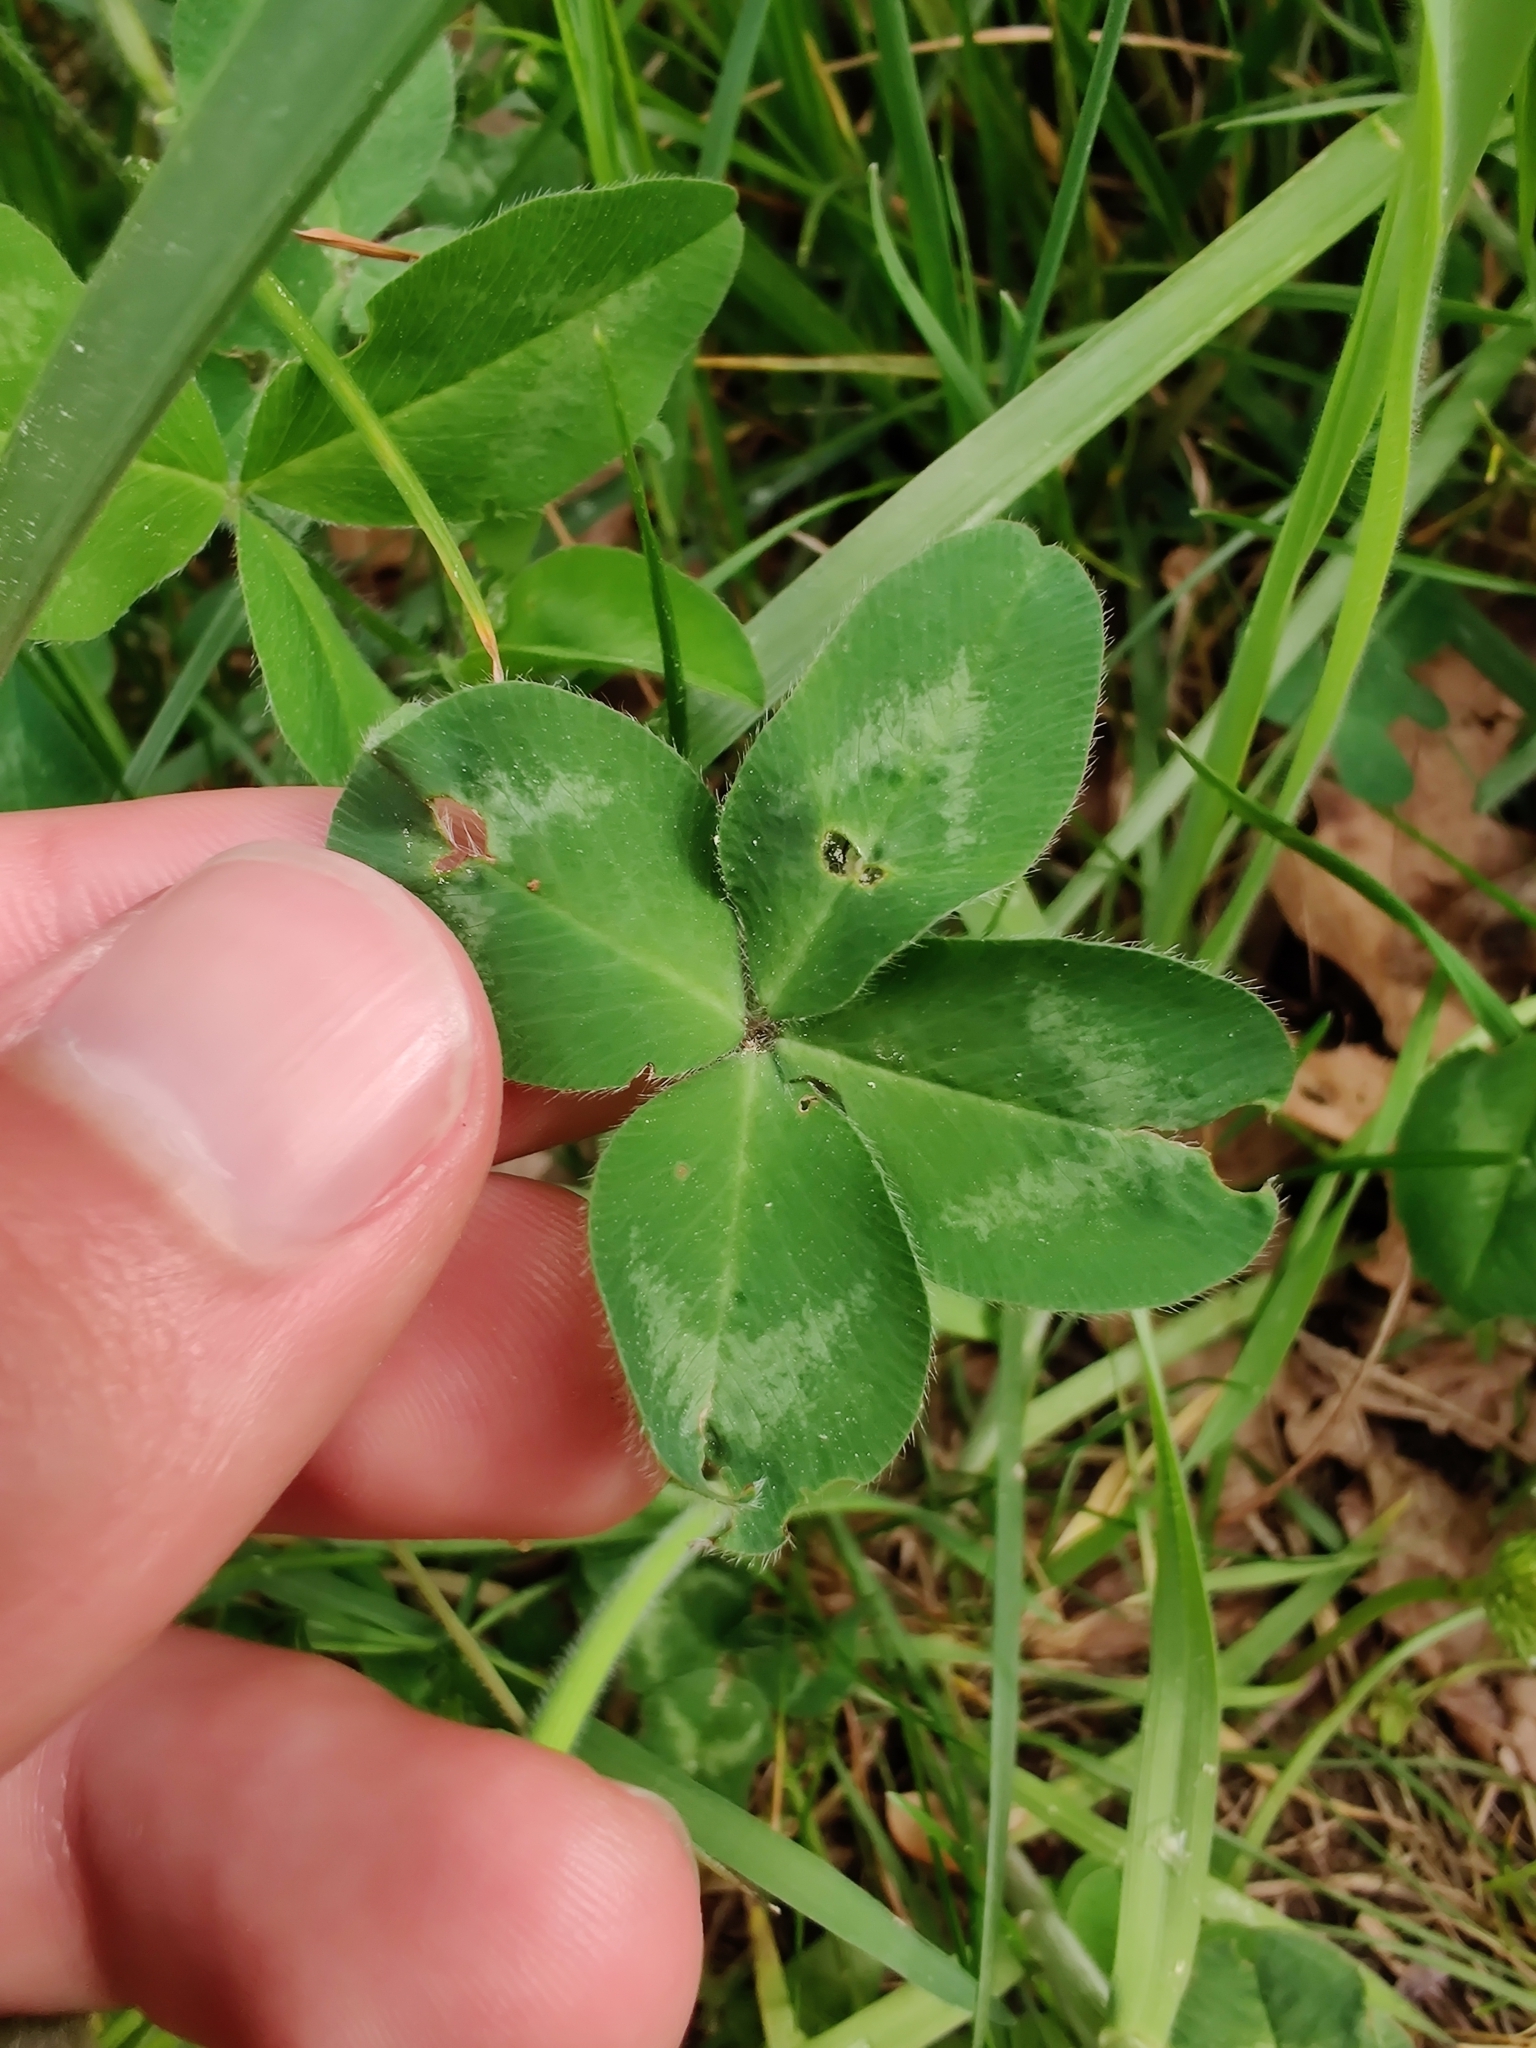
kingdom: Plantae
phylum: Tracheophyta
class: Magnoliopsida
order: Fabales
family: Fabaceae
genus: Trifolium
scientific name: Trifolium pratense
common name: Red clover
